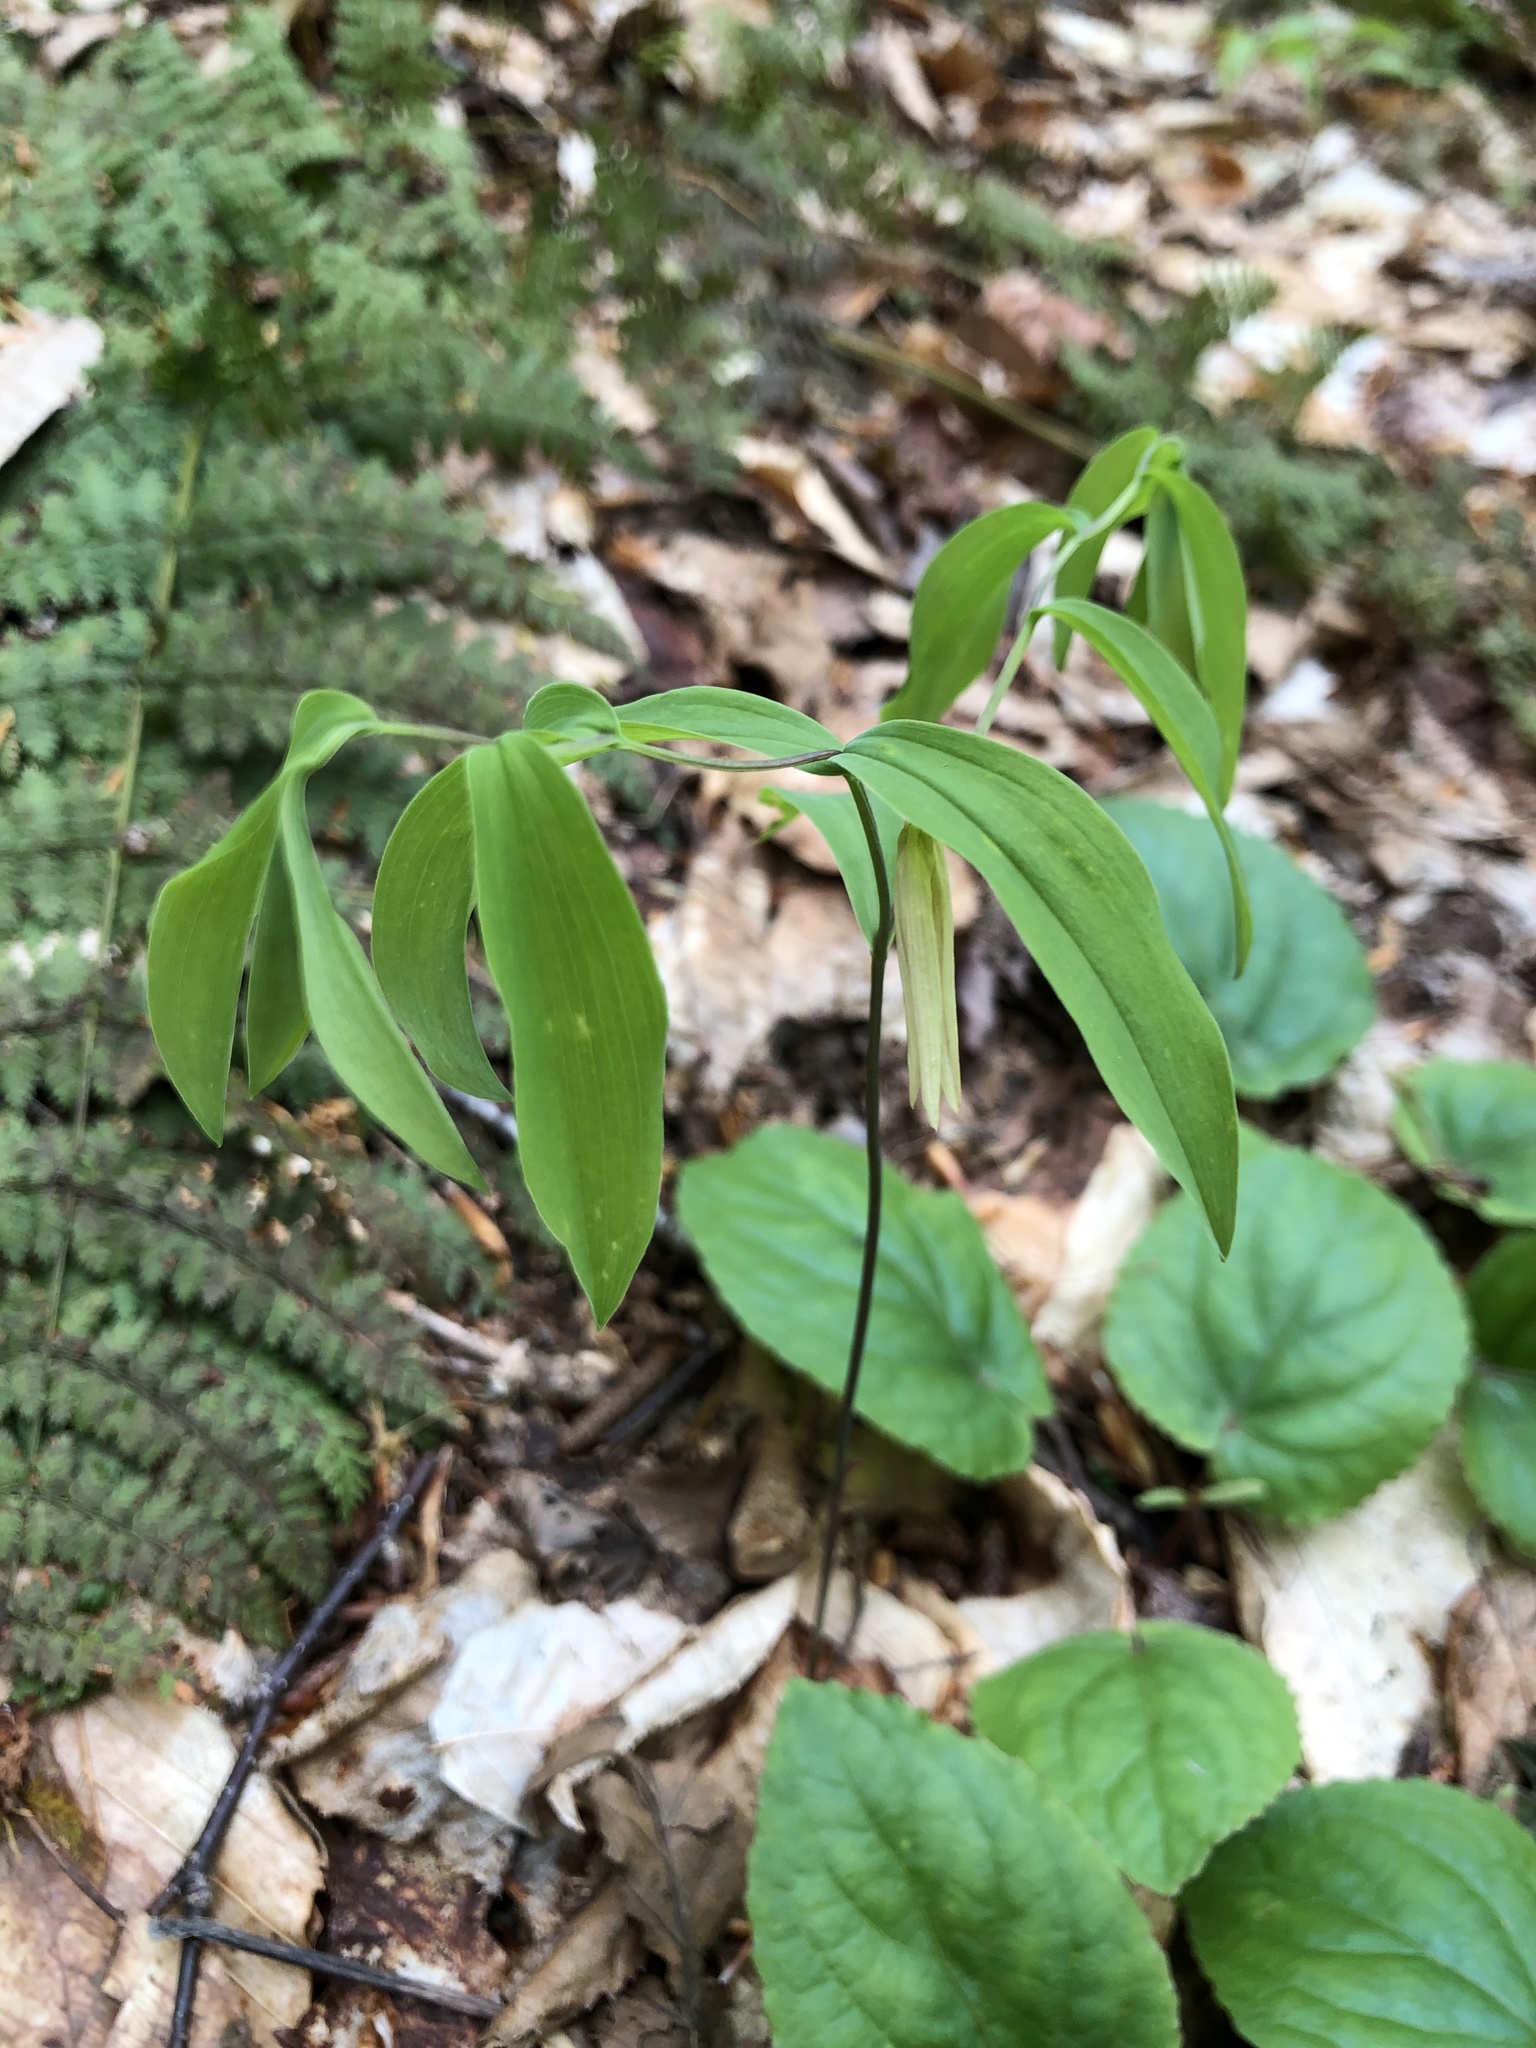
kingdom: Plantae
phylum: Tracheophyta
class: Liliopsida
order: Liliales
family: Colchicaceae
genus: Uvularia
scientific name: Uvularia sessilifolia
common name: Straw-lily
